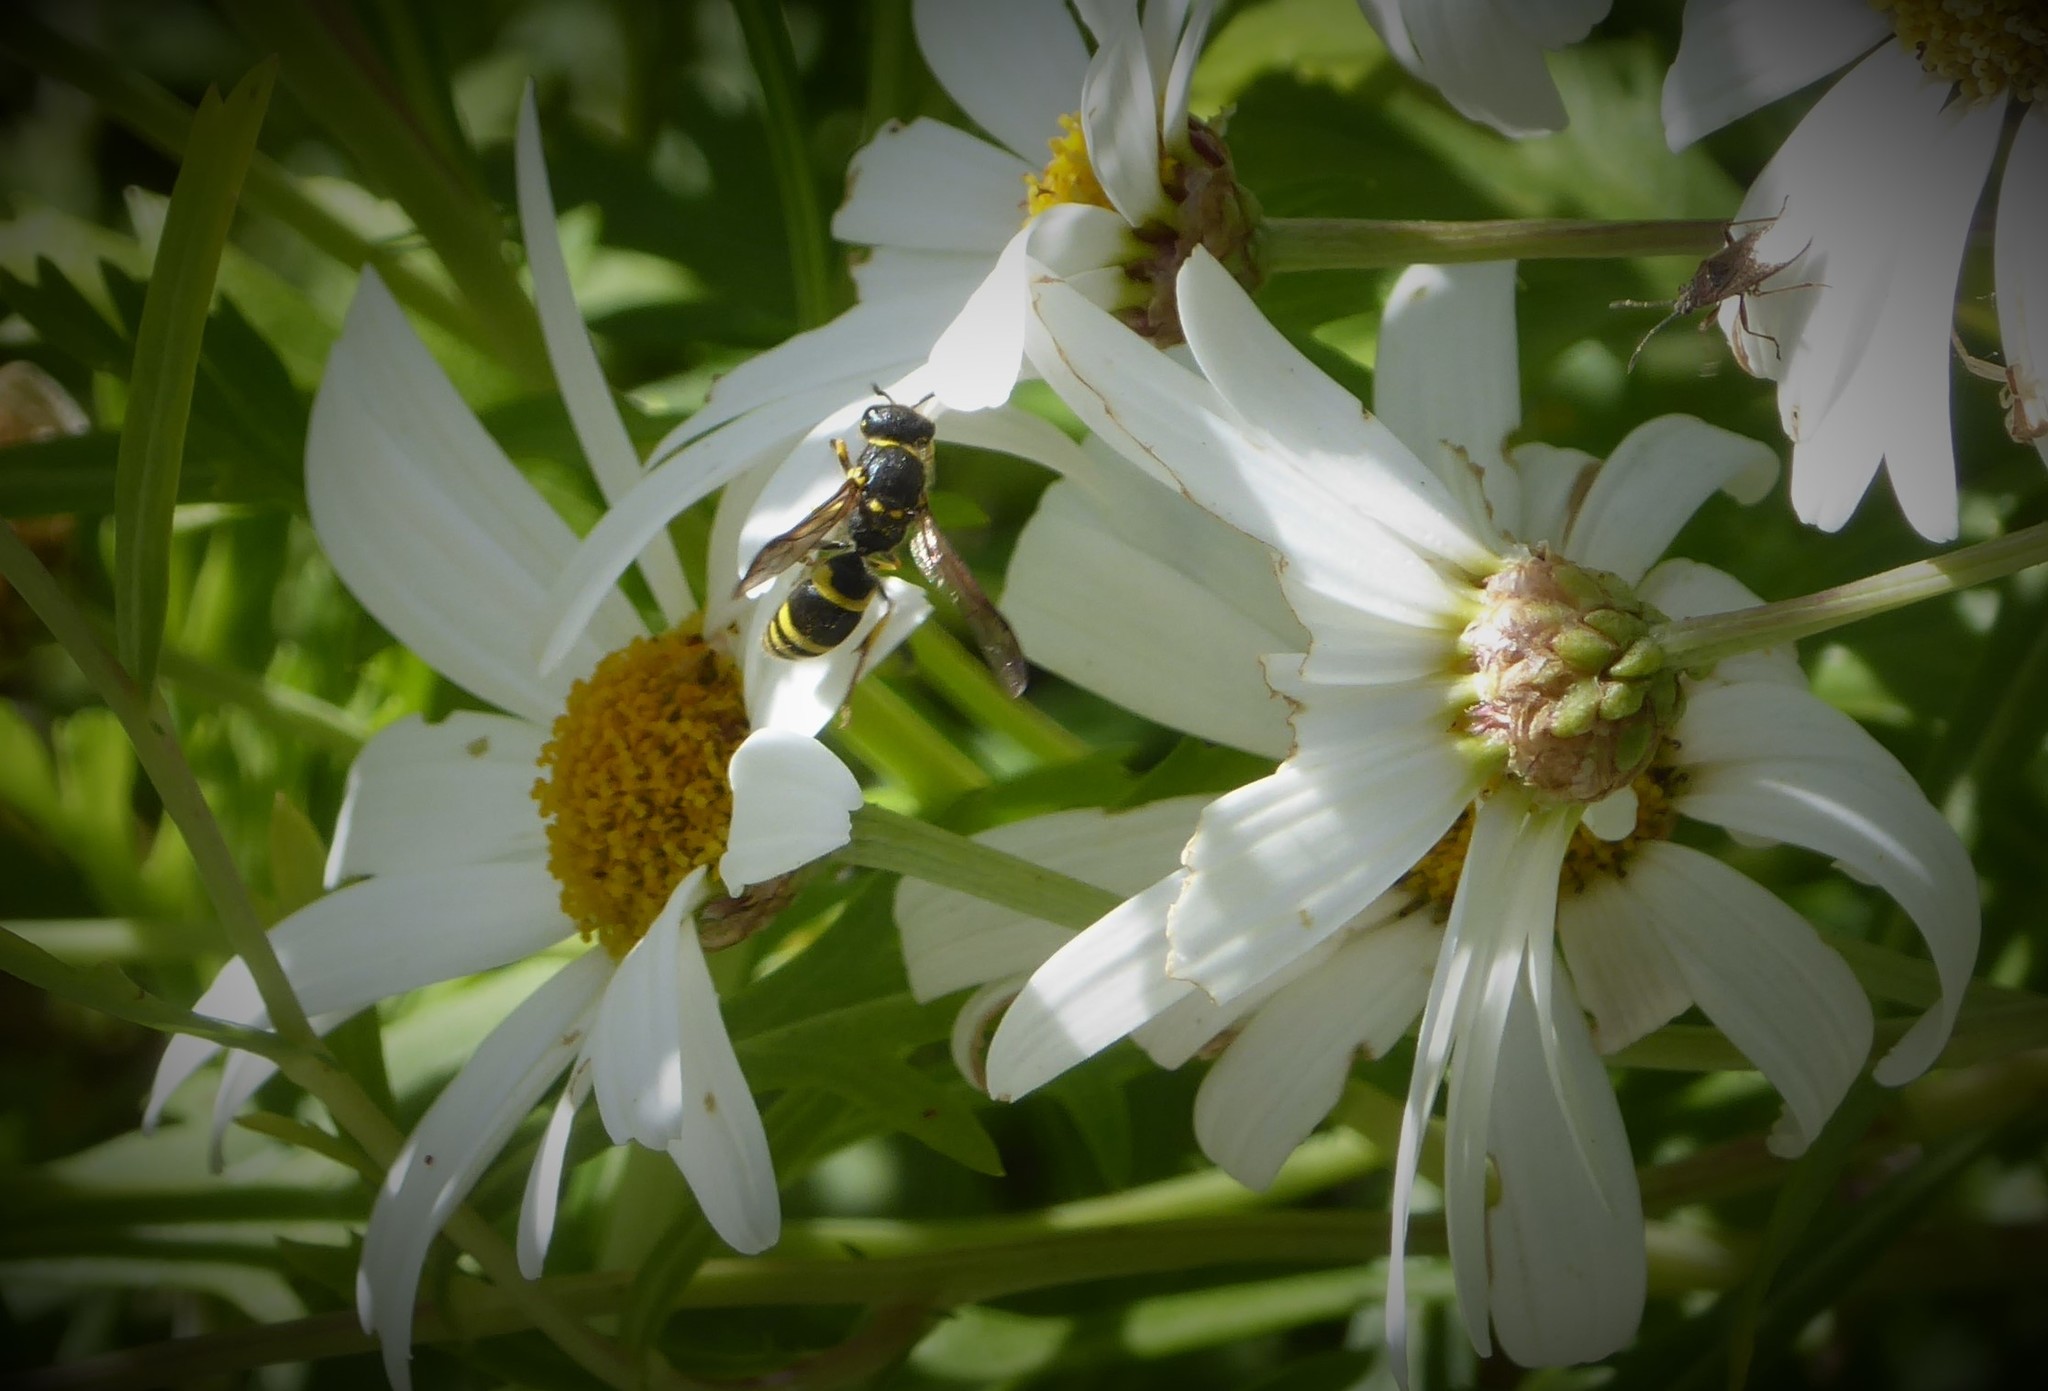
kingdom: Animalia
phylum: Arthropoda
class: Insecta
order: Hymenoptera
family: Vespidae
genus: Ancistrocerus
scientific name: Ancistrocerus gazella
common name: European tube wasp
